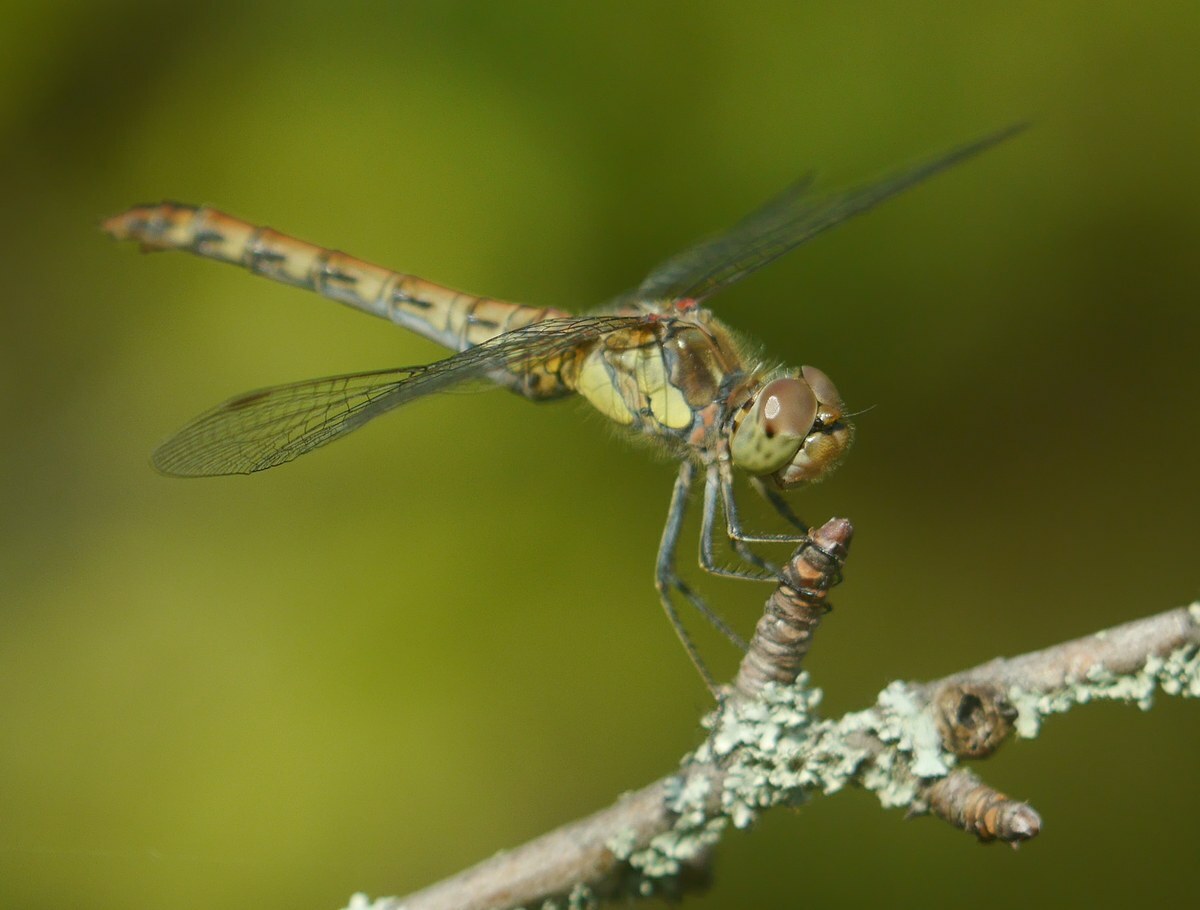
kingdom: Animalia
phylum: Arthropoda
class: Insecta
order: Odonata
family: Libellulidae
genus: Sympetrum
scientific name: Sympetrum striolatum
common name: Common darter
